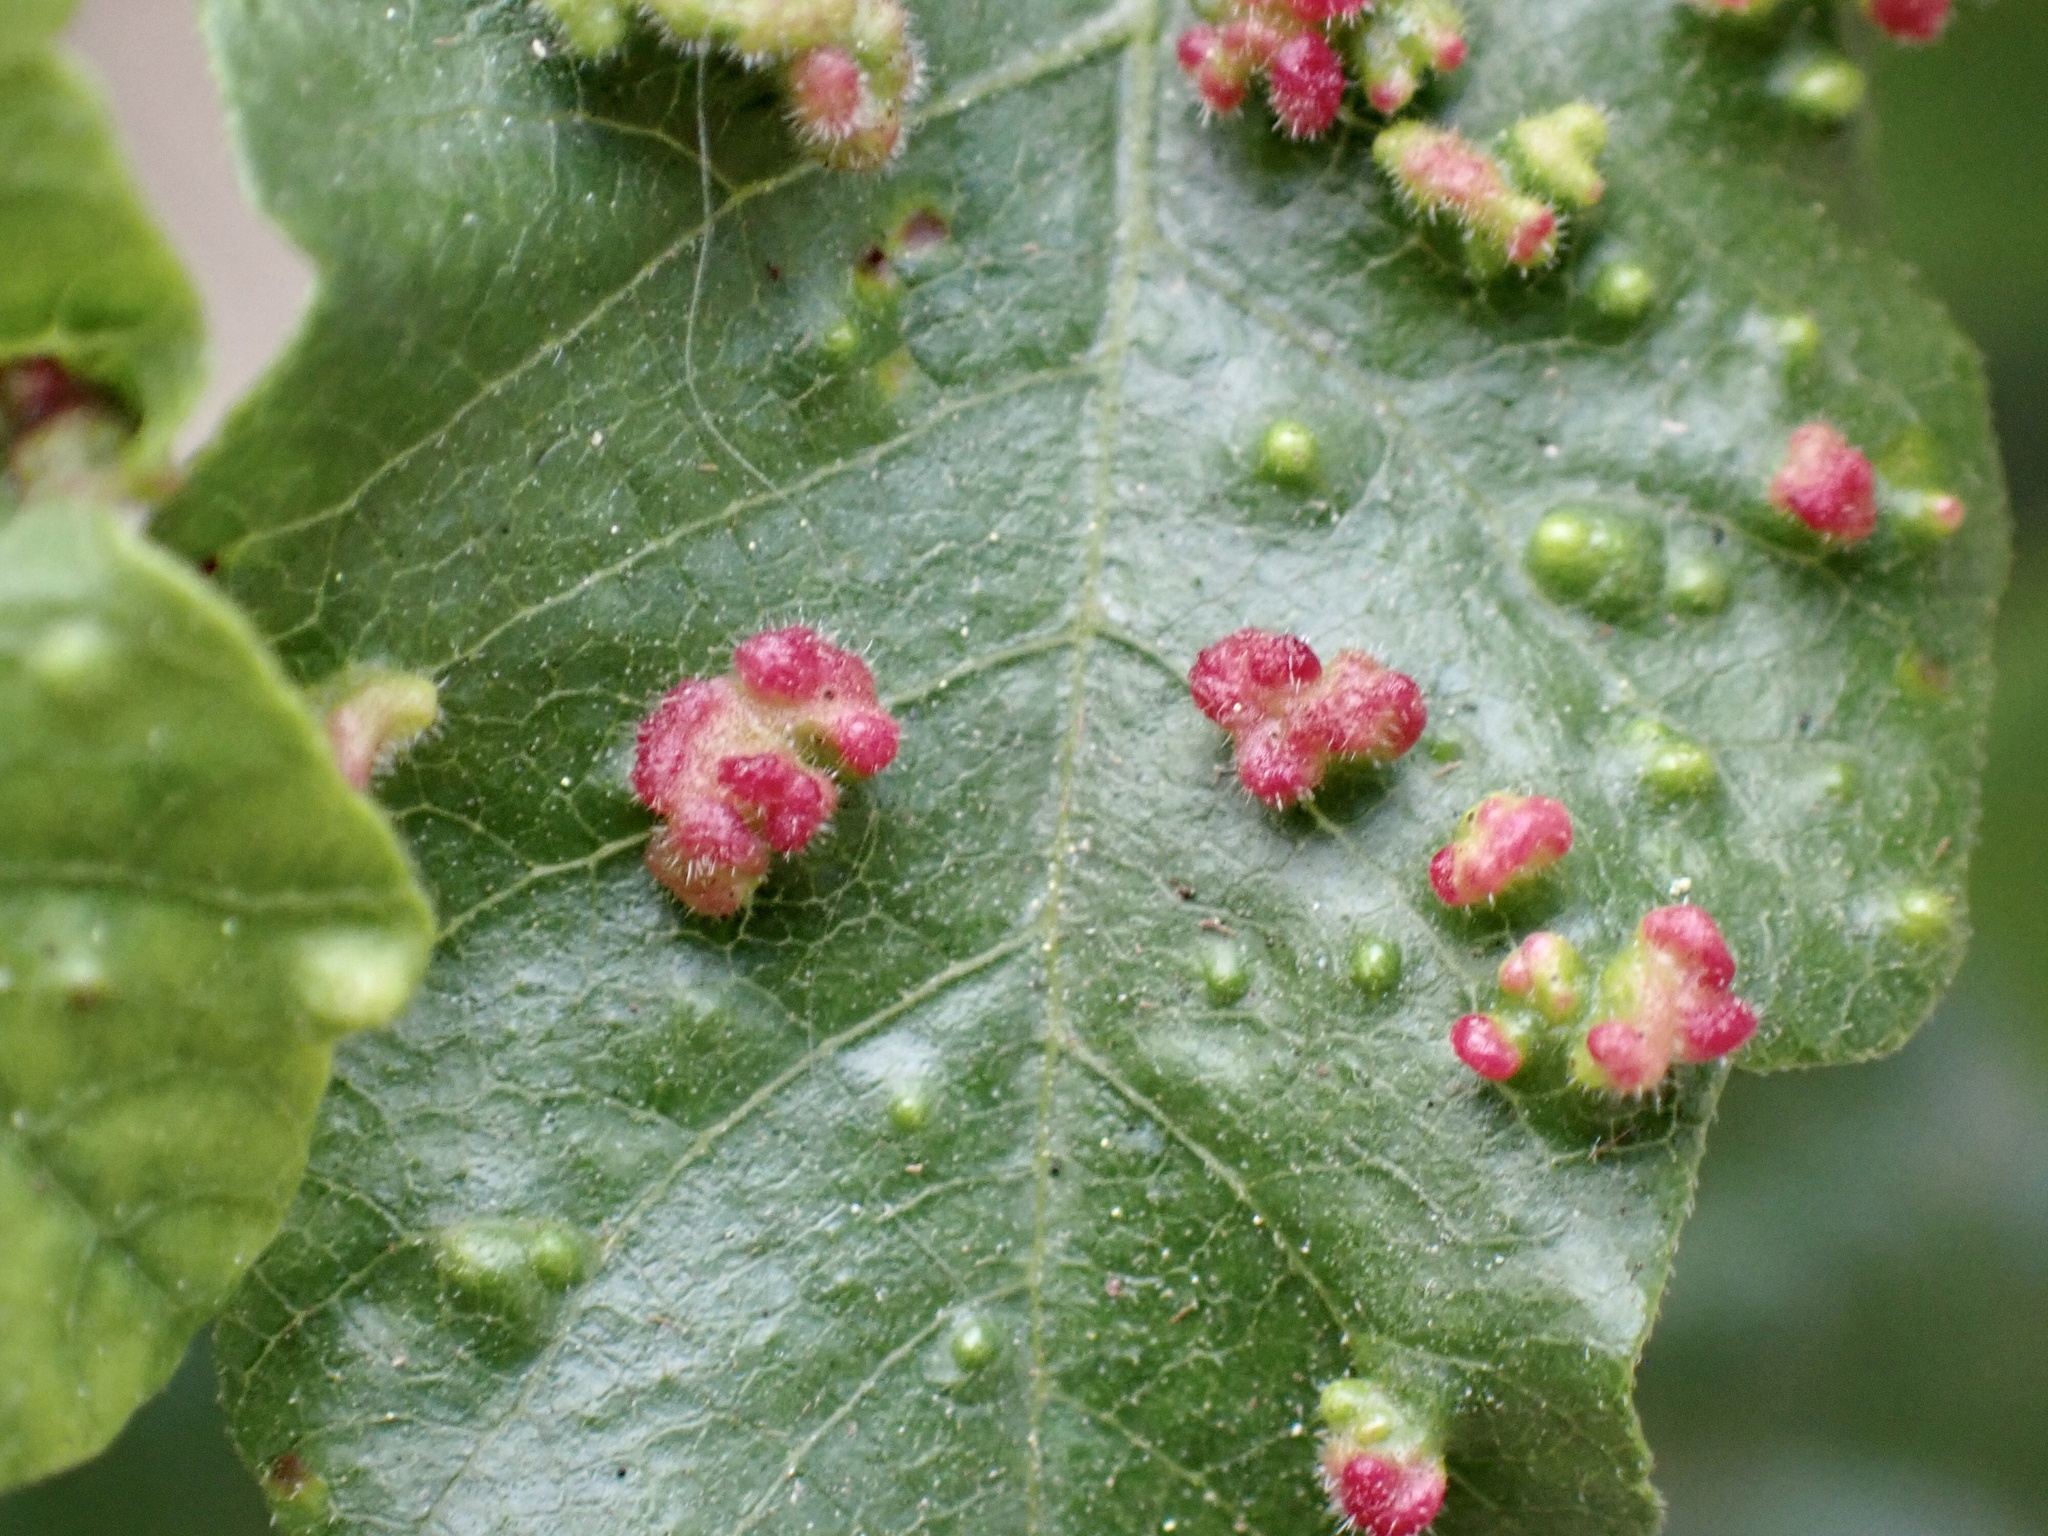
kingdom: Animalia
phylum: Arthropoda
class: Arachnida
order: Trombidiformes
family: Eriophyidae
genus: Aculops
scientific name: Aculops
